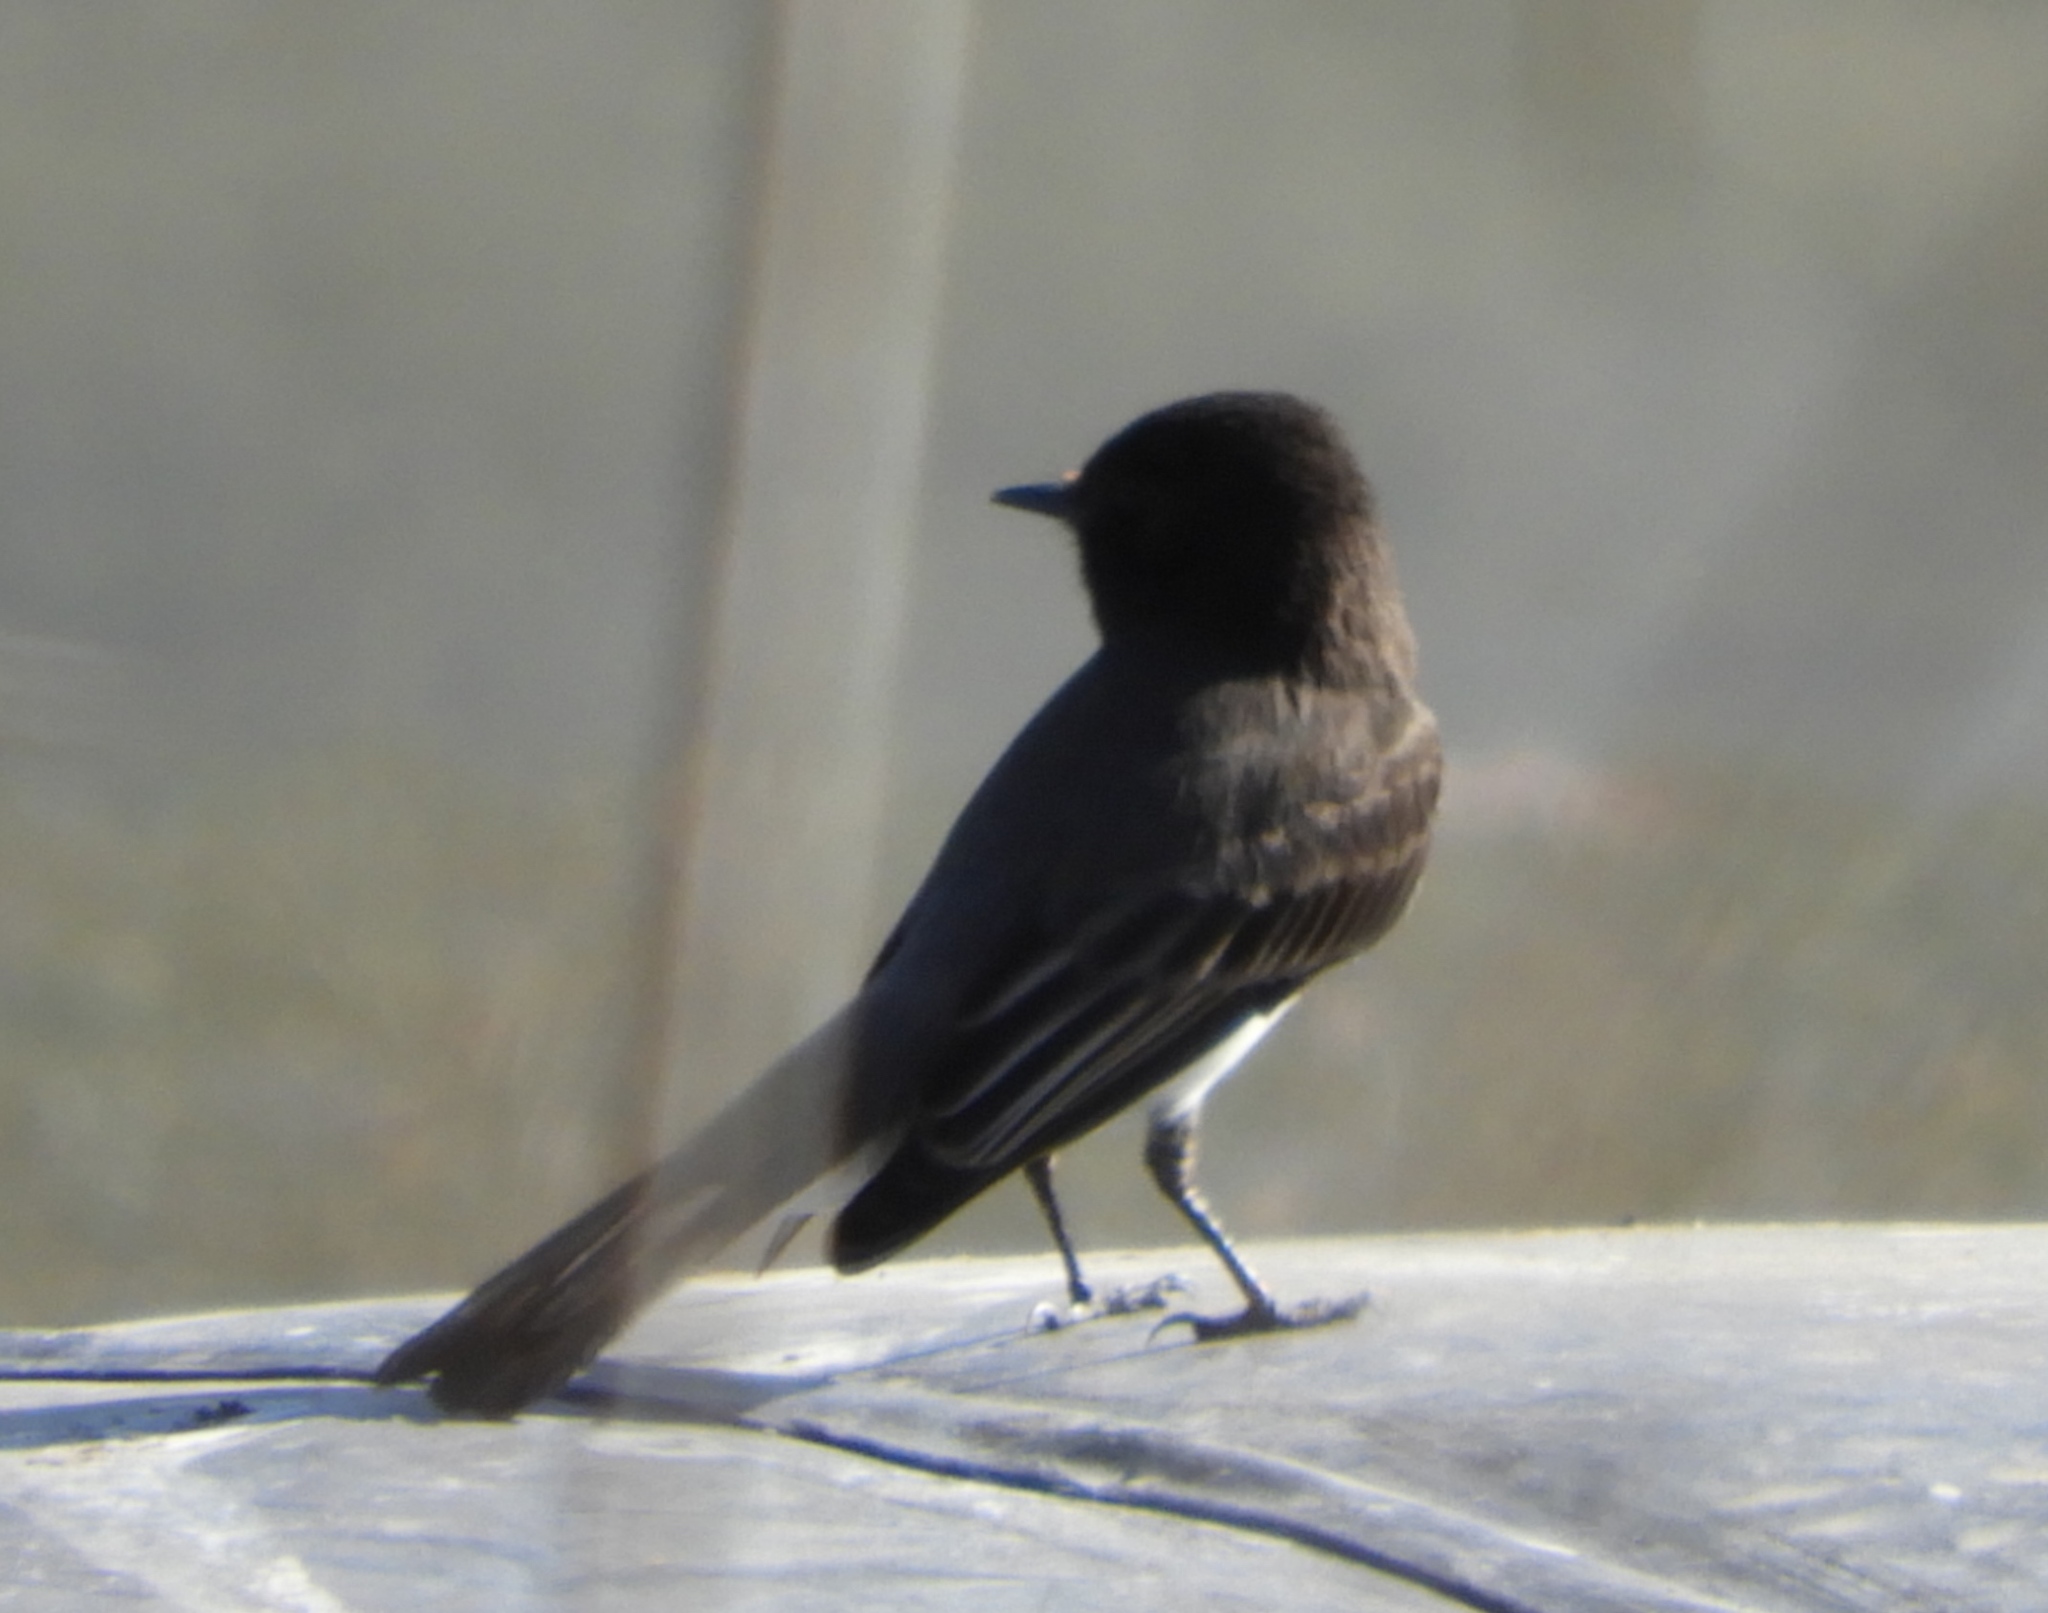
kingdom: Animalia
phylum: Chordata
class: Aves
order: Passeriformes
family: Tyrannidae
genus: Sayornis
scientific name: Sayornis nigricans
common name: Black phoebe
